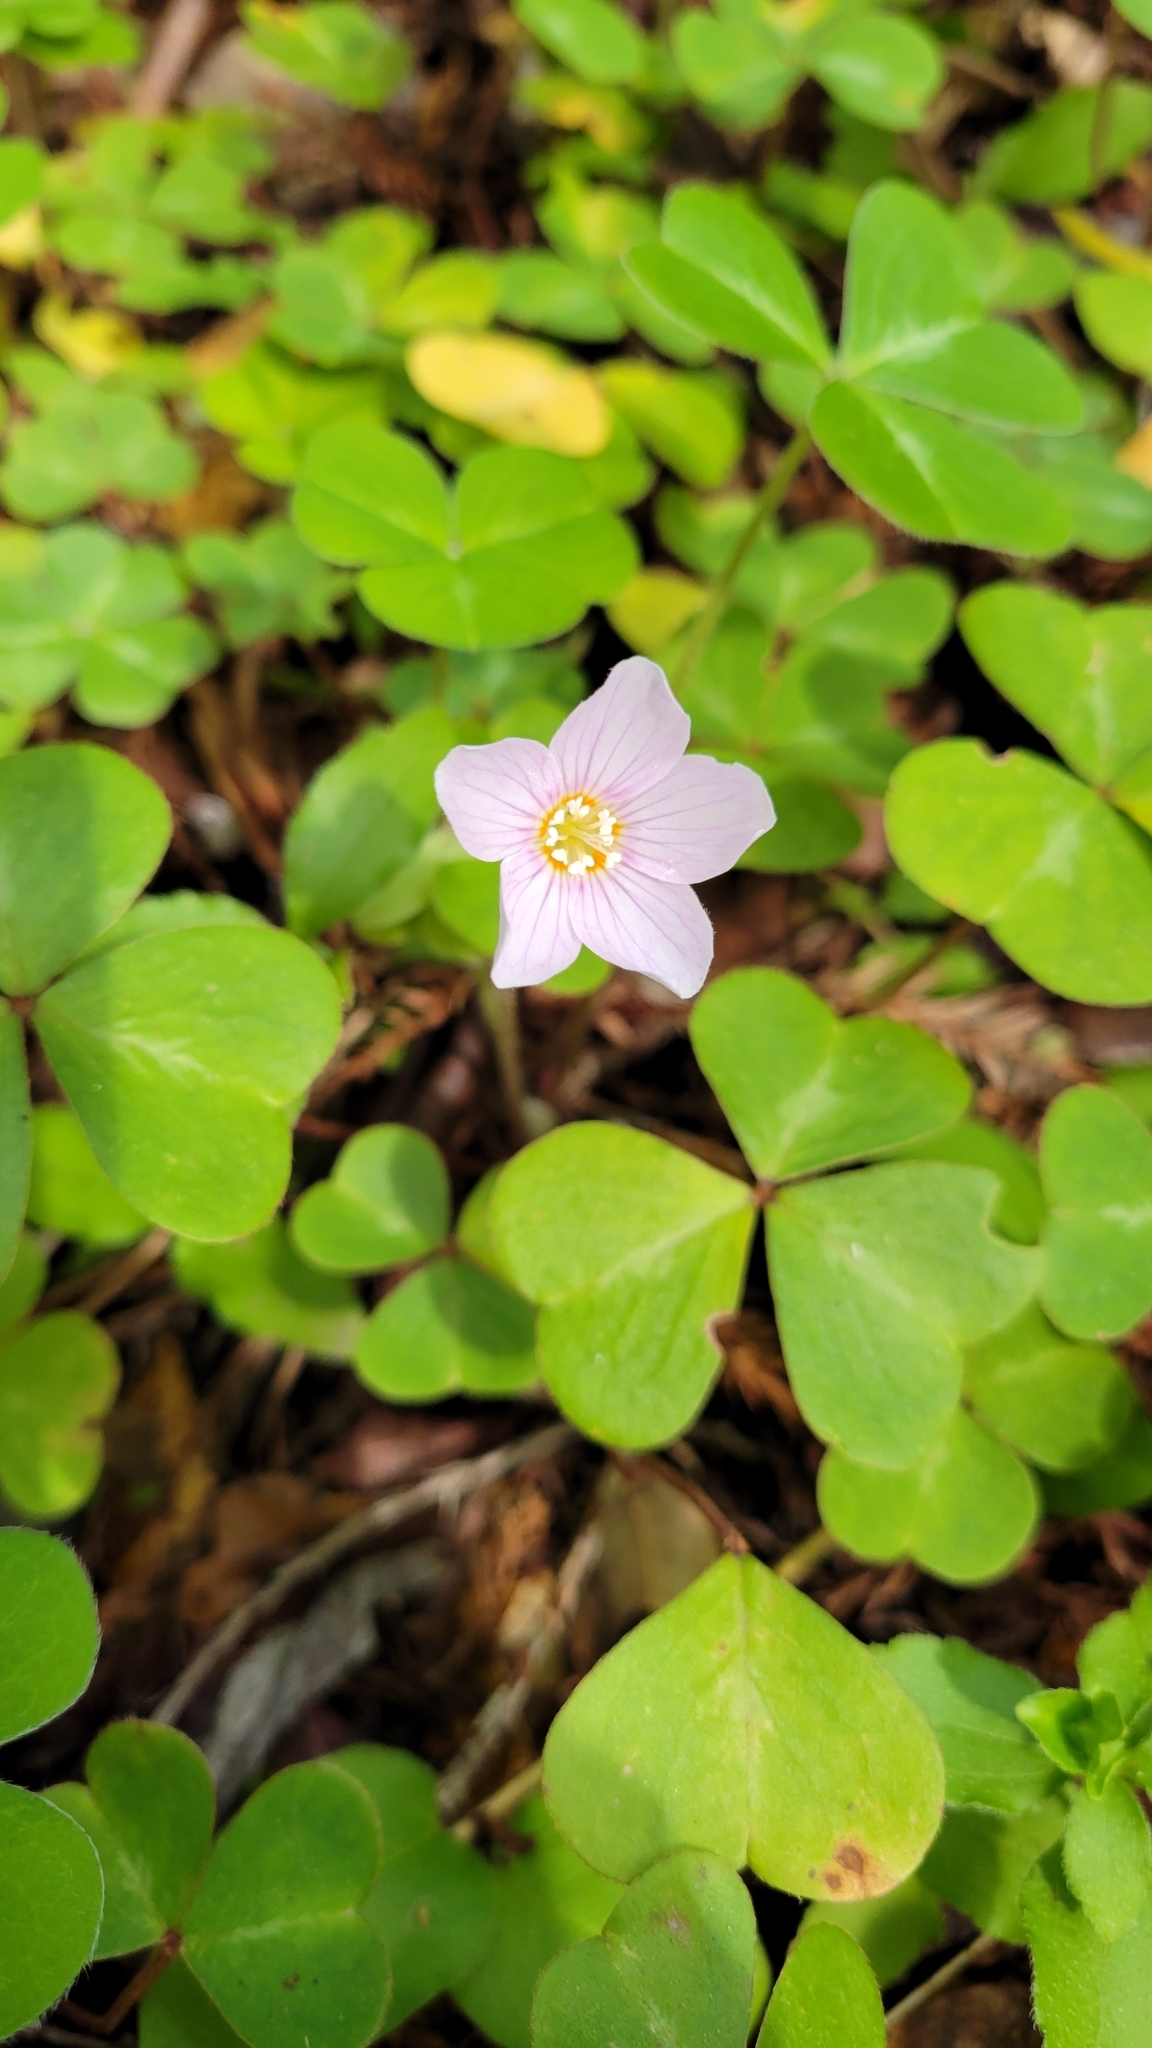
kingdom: Plantae
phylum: Tracheophyta
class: Magnoliopsida
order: Oxalidales
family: Oxalidaceae
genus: Oxalis
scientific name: Oxalis oregana
